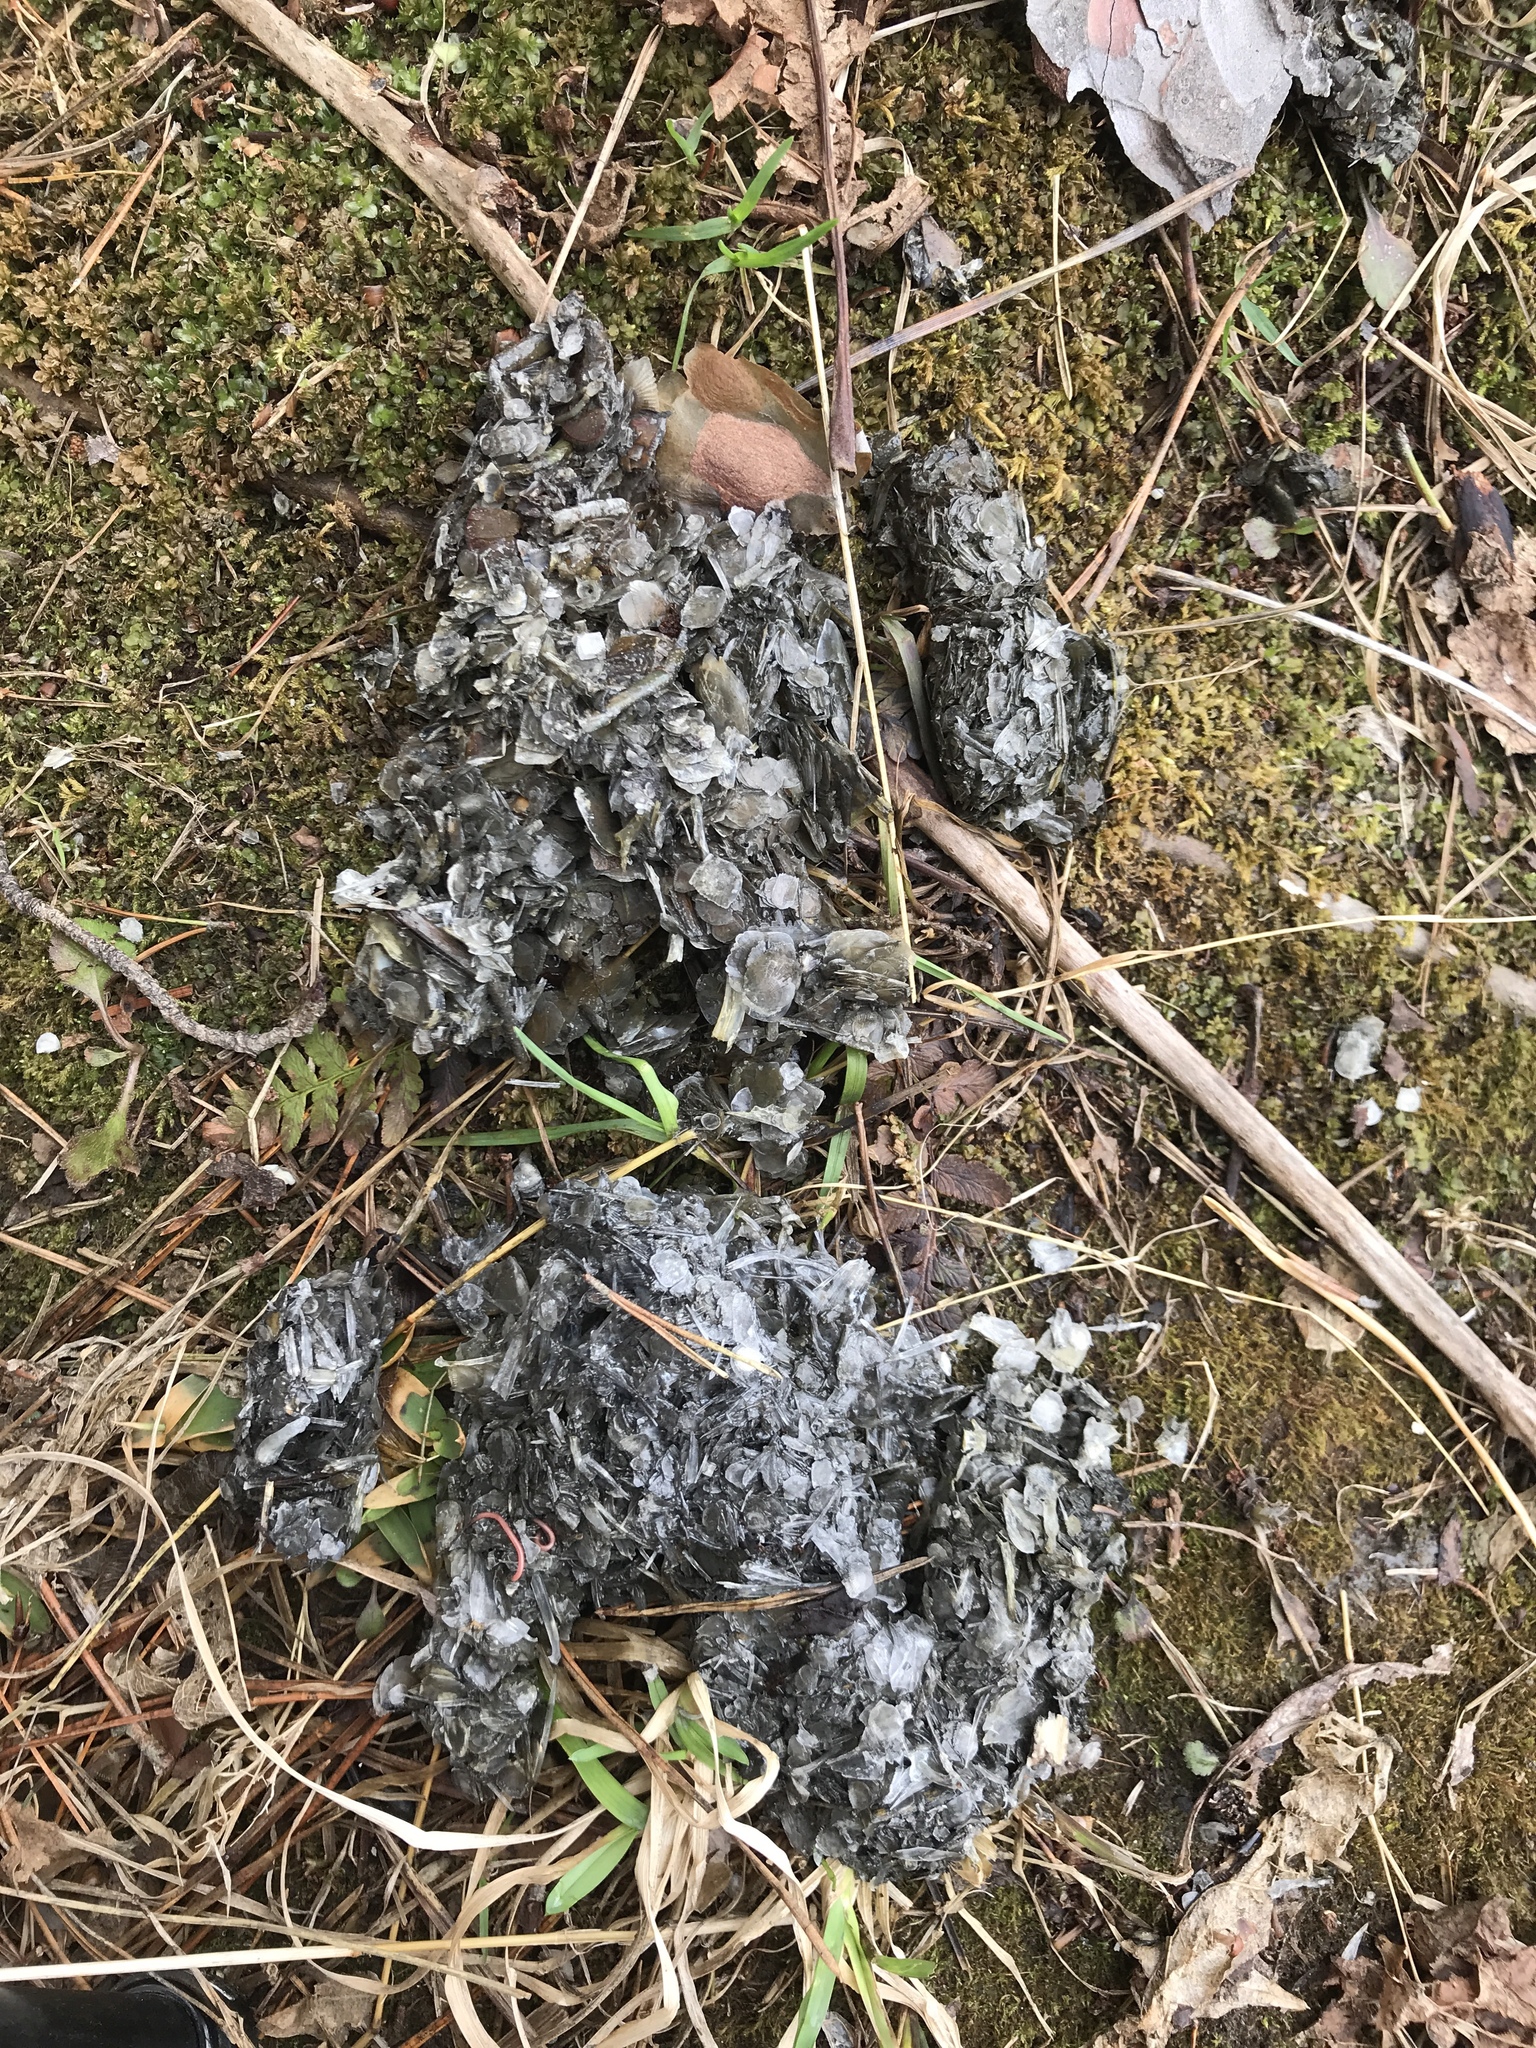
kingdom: Animalia
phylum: Chordata
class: Mammalia
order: Carnivora
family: Mustelidae
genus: Lontra
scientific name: Lontra canadensis
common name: North american river otter
